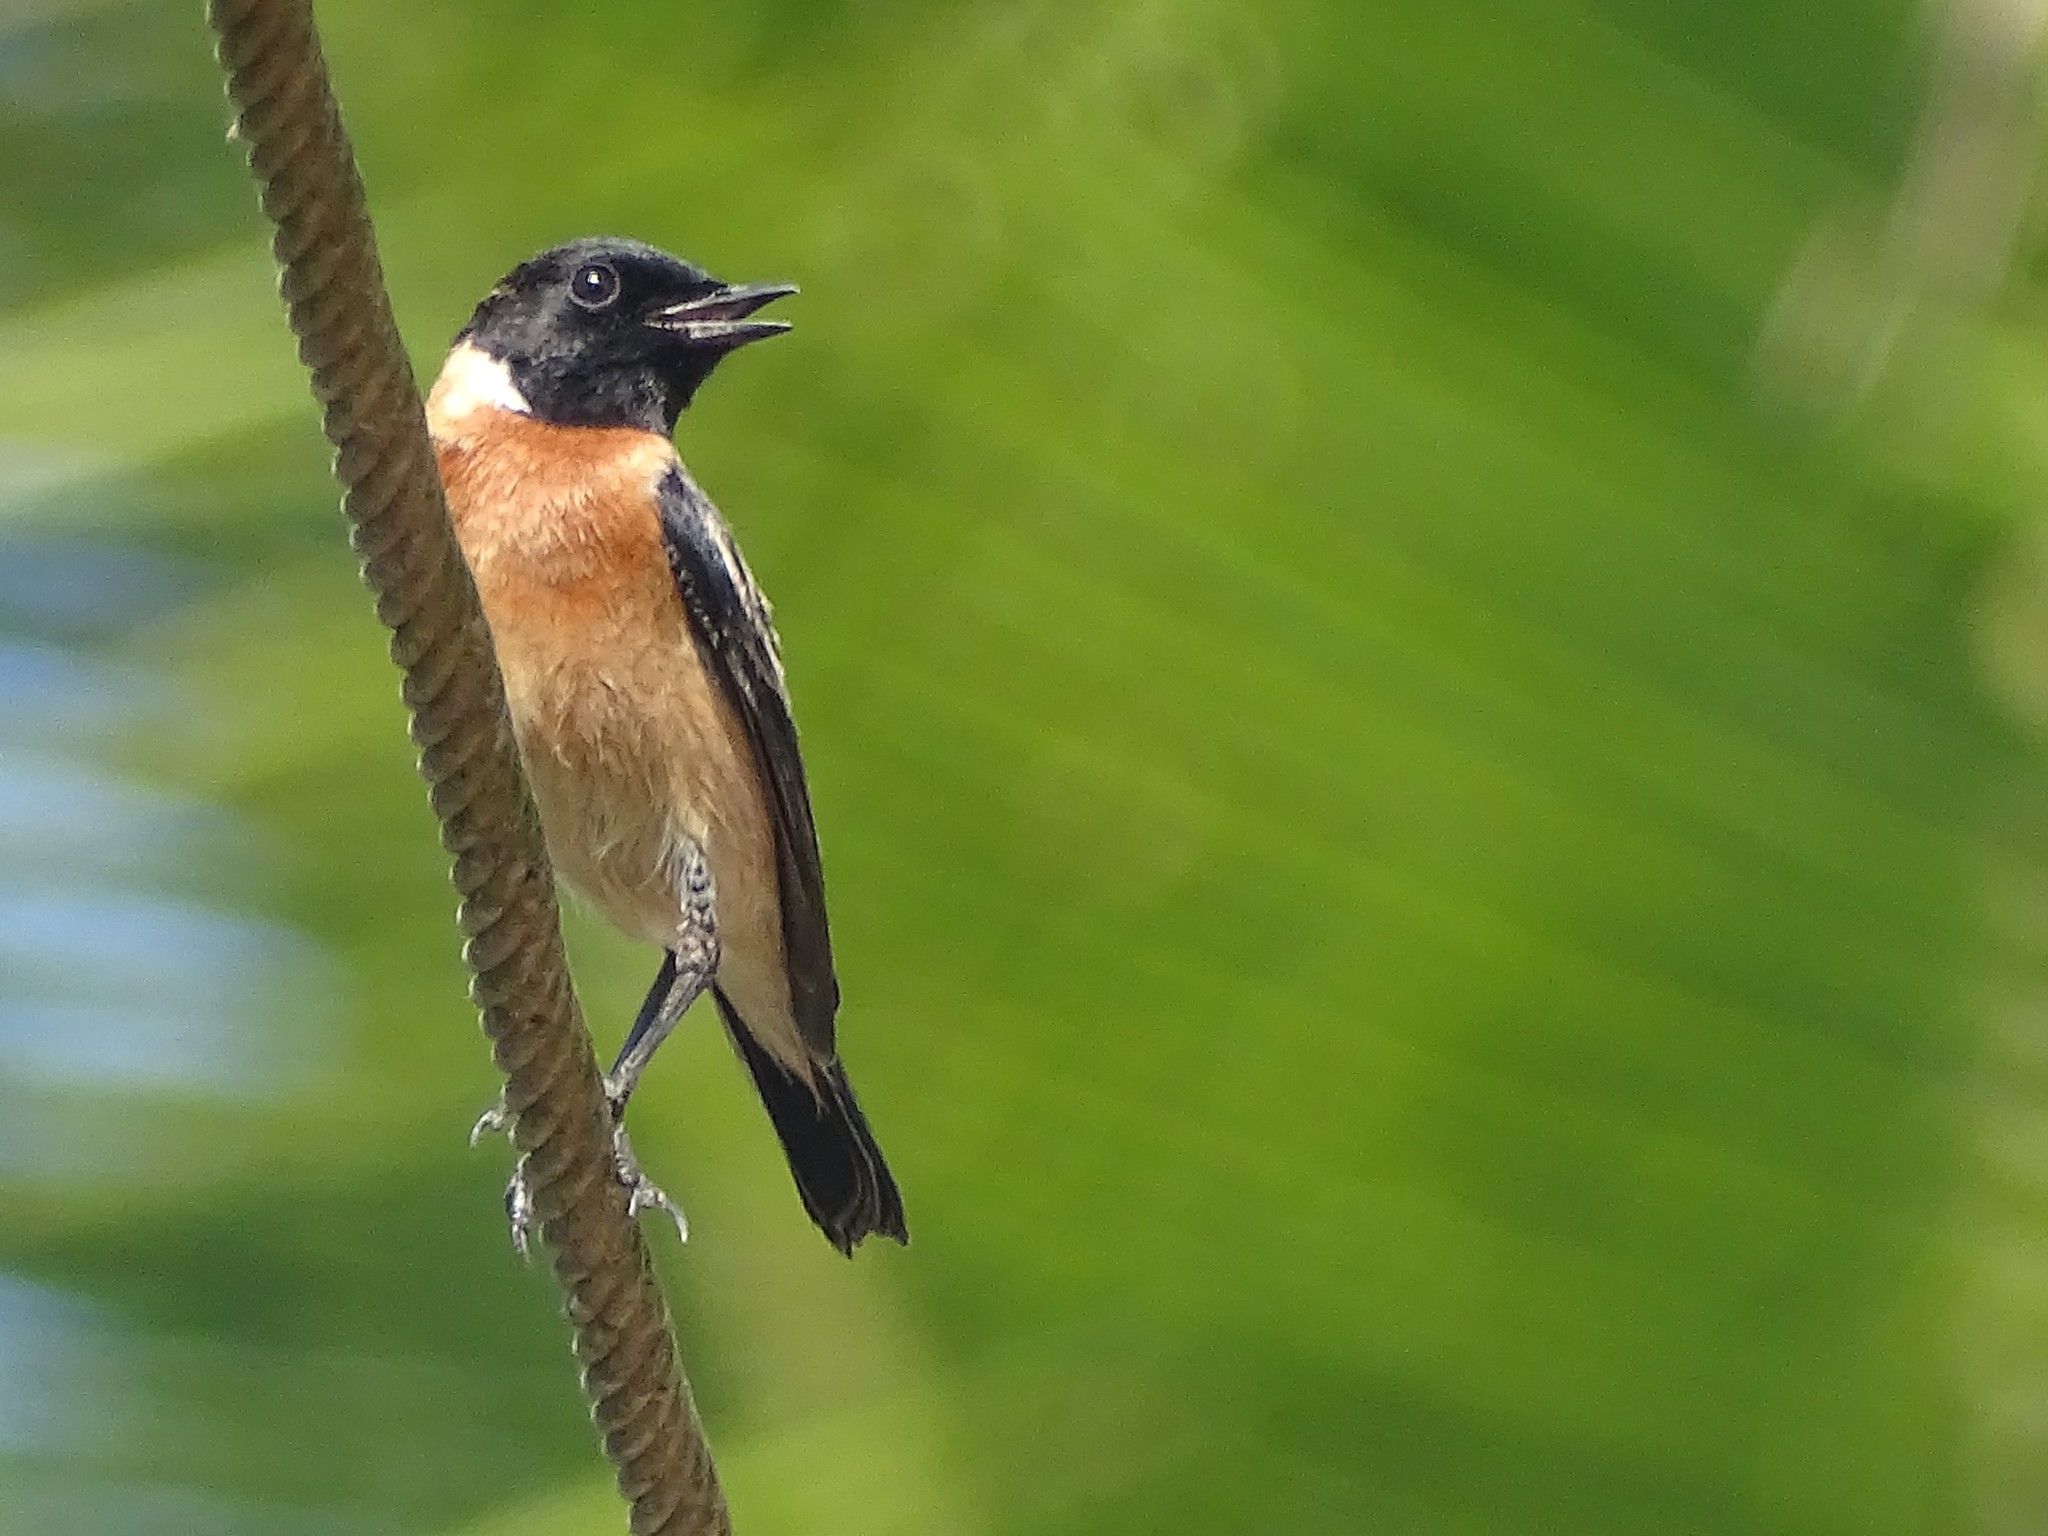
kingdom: Animalia
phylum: Chordata
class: Aves
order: Passeriformes
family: Muscicapidae
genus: Saxicola
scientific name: Saxicola maurus
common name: Siberian stonechat
